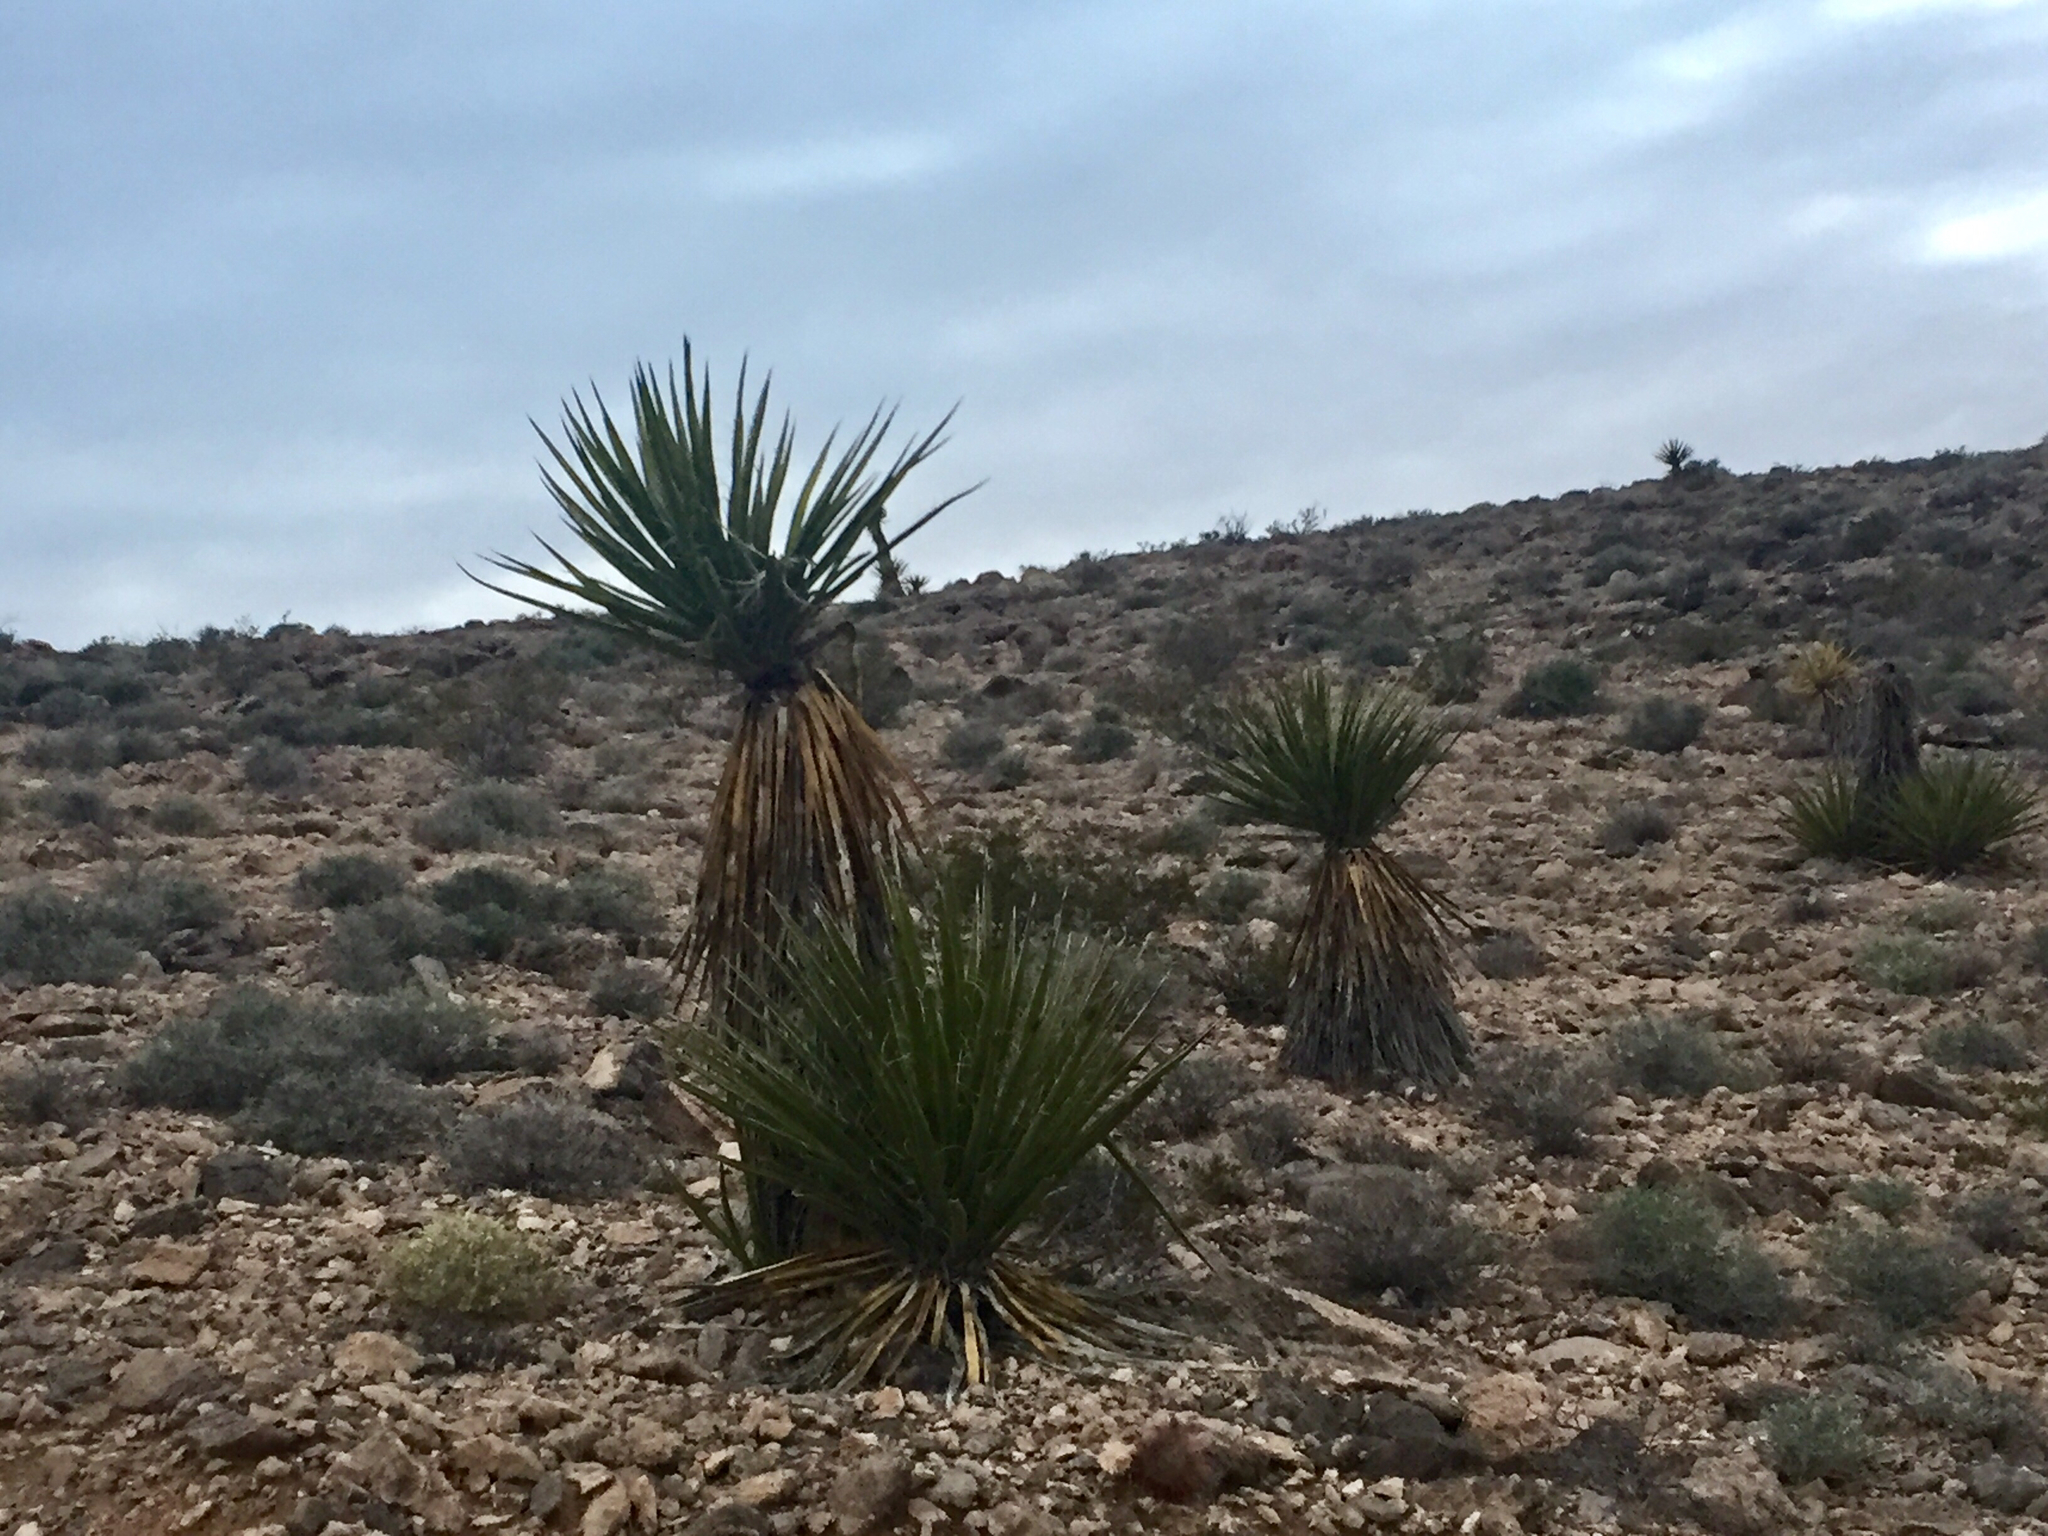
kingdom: Plantae
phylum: Tracheophyta
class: Liliopsida
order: Asparagales
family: Asparagaceae
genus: Yucca
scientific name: Yucca schidigera
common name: Mojave yucca
